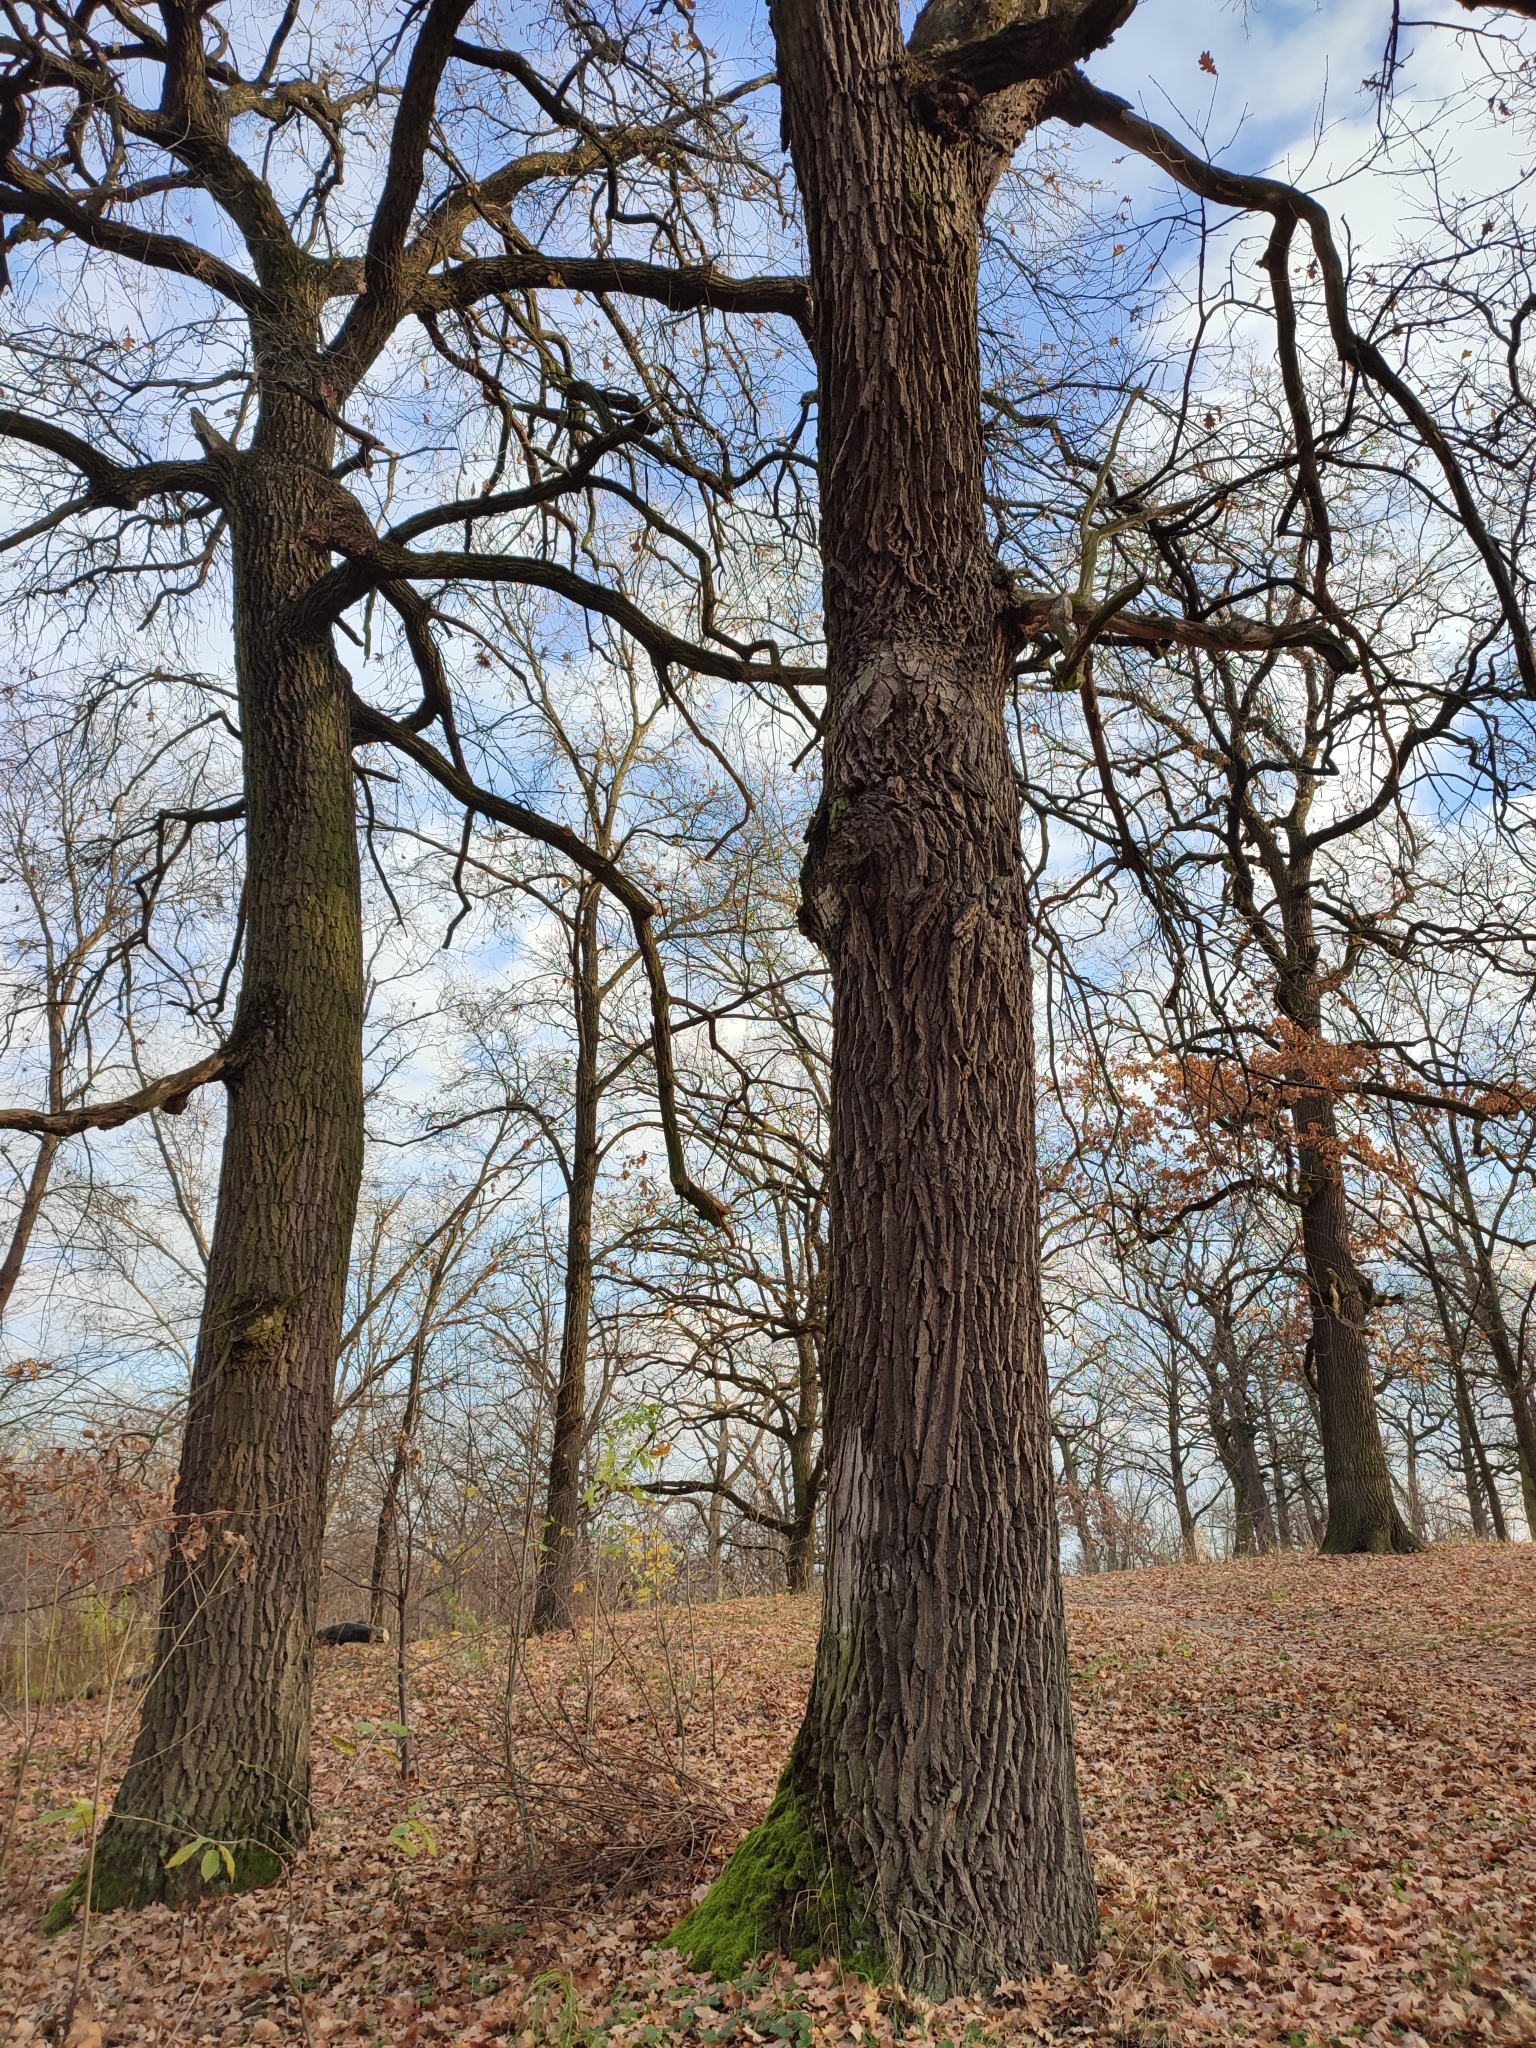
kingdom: Plantae
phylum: Tracheophyta
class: Magnoliopsida
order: Fagales
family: Fagaceae
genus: Quercus
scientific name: Quercus robur
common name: Pedunculate oak
